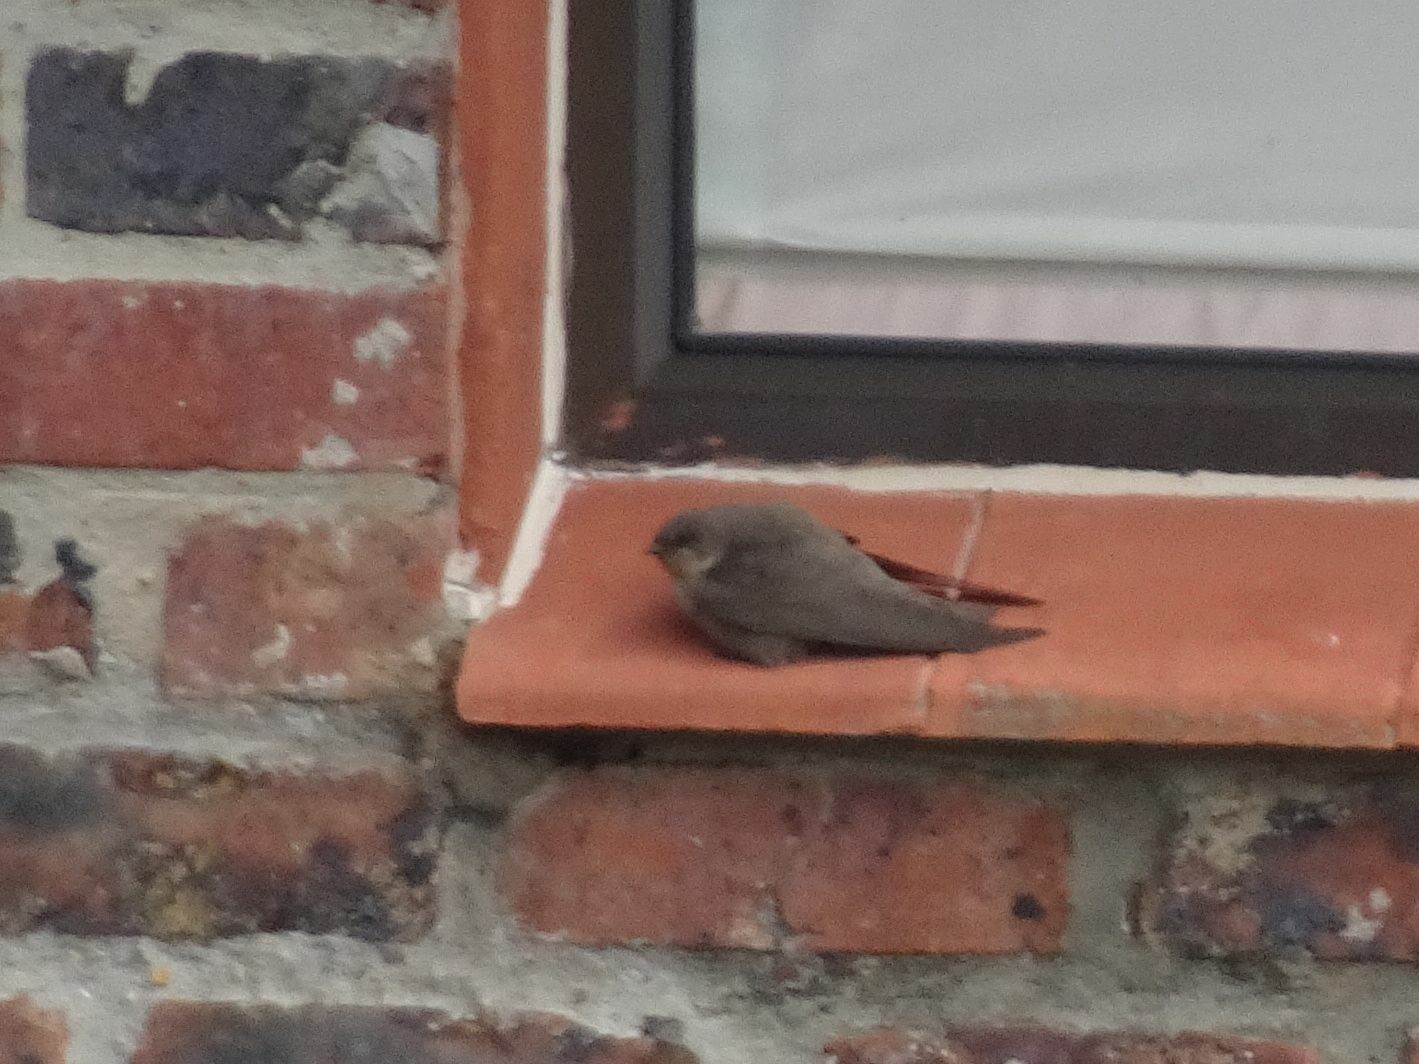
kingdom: Animalia
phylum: Chordata
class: Aves
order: Passeriformes
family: Hirundinidae
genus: Ptyonoprogne
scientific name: Ptyonoprogne fuligula
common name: Rock martin
